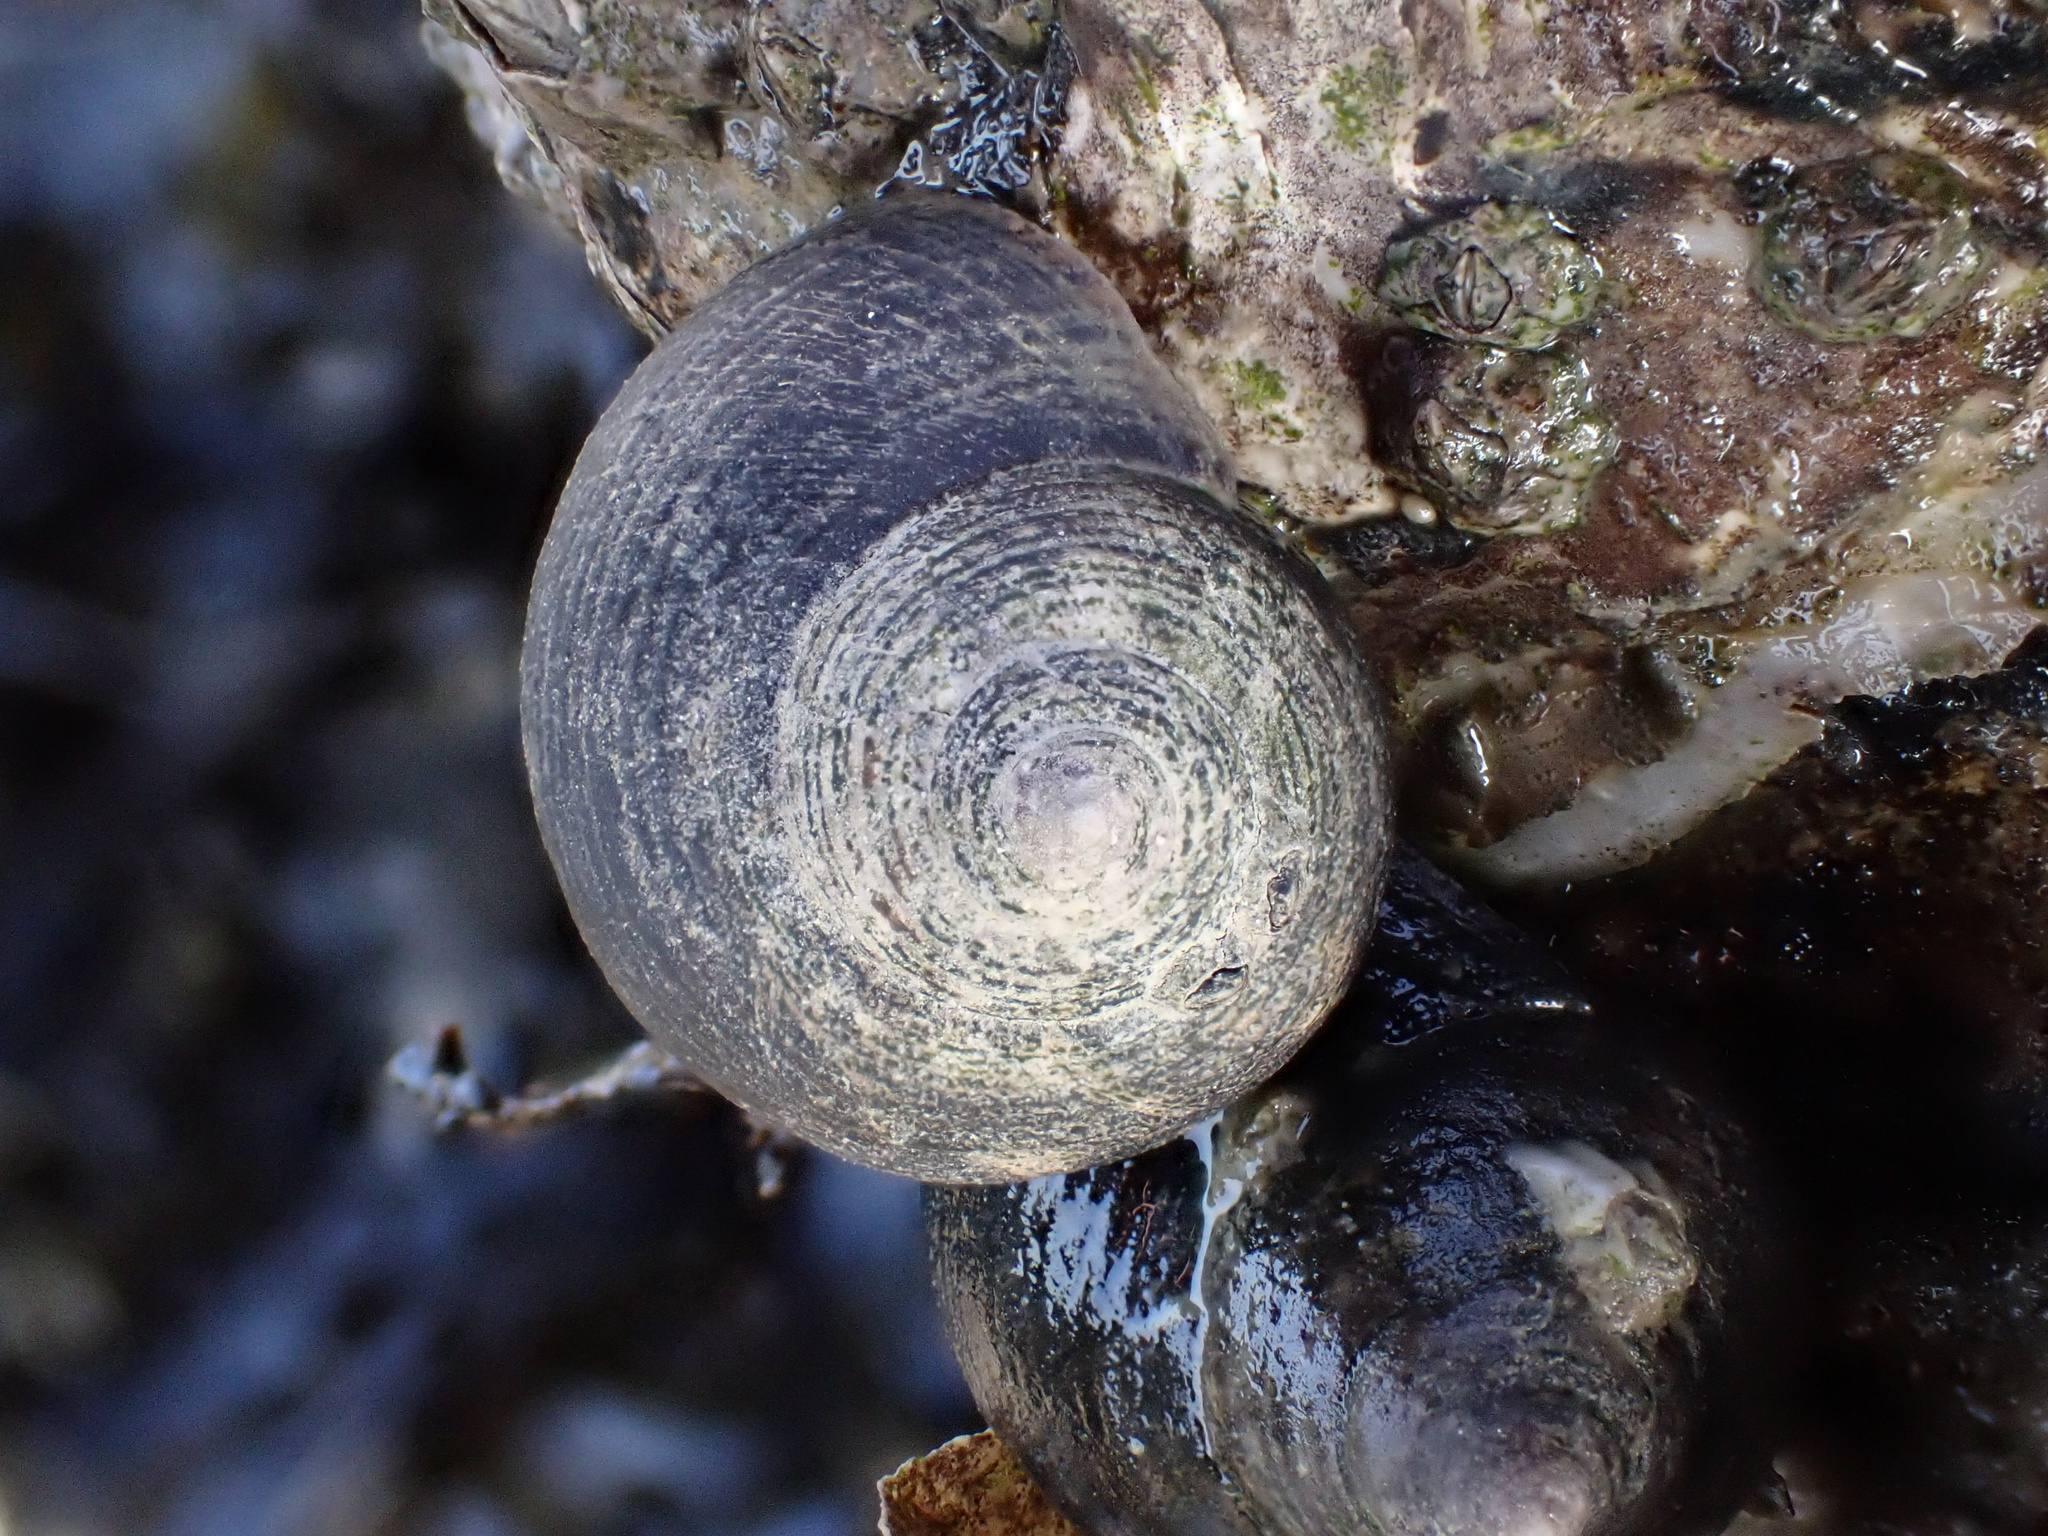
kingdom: Animalia
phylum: Mollusca
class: Gastropoda
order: Littorinimorpha
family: Littorinidae
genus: Littorina
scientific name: Littorina littorea
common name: Common periwinkle
